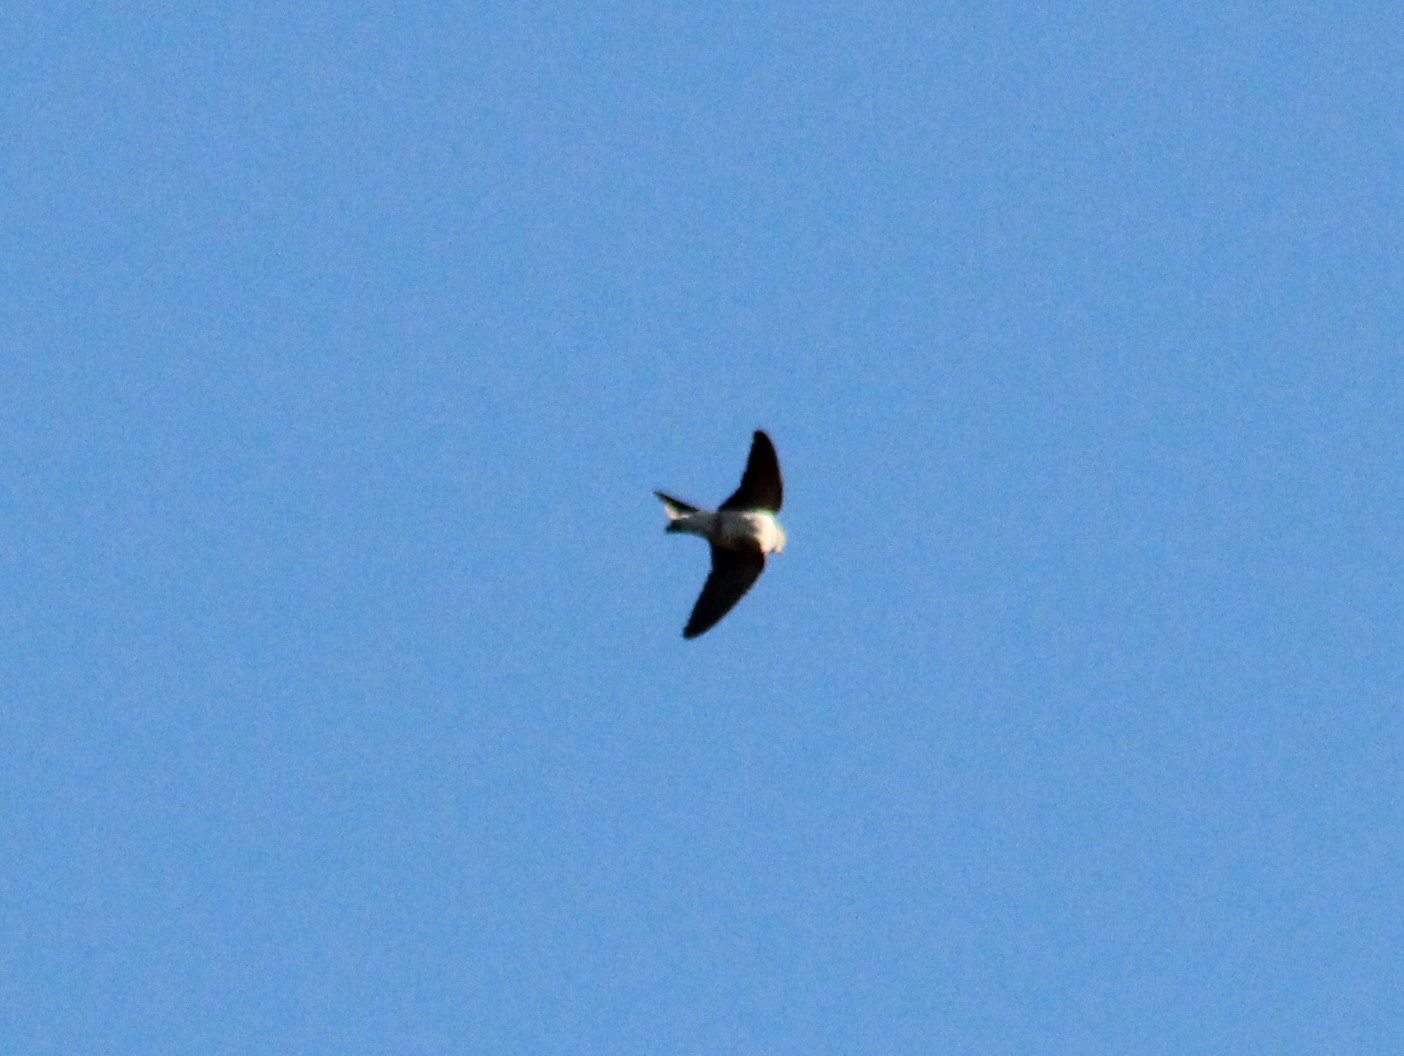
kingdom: Animalia
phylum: Chordata
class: Aves
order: Passeriformes
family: Hirundinidae
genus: Riparia
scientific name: Riparia riparia
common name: Sand martin
